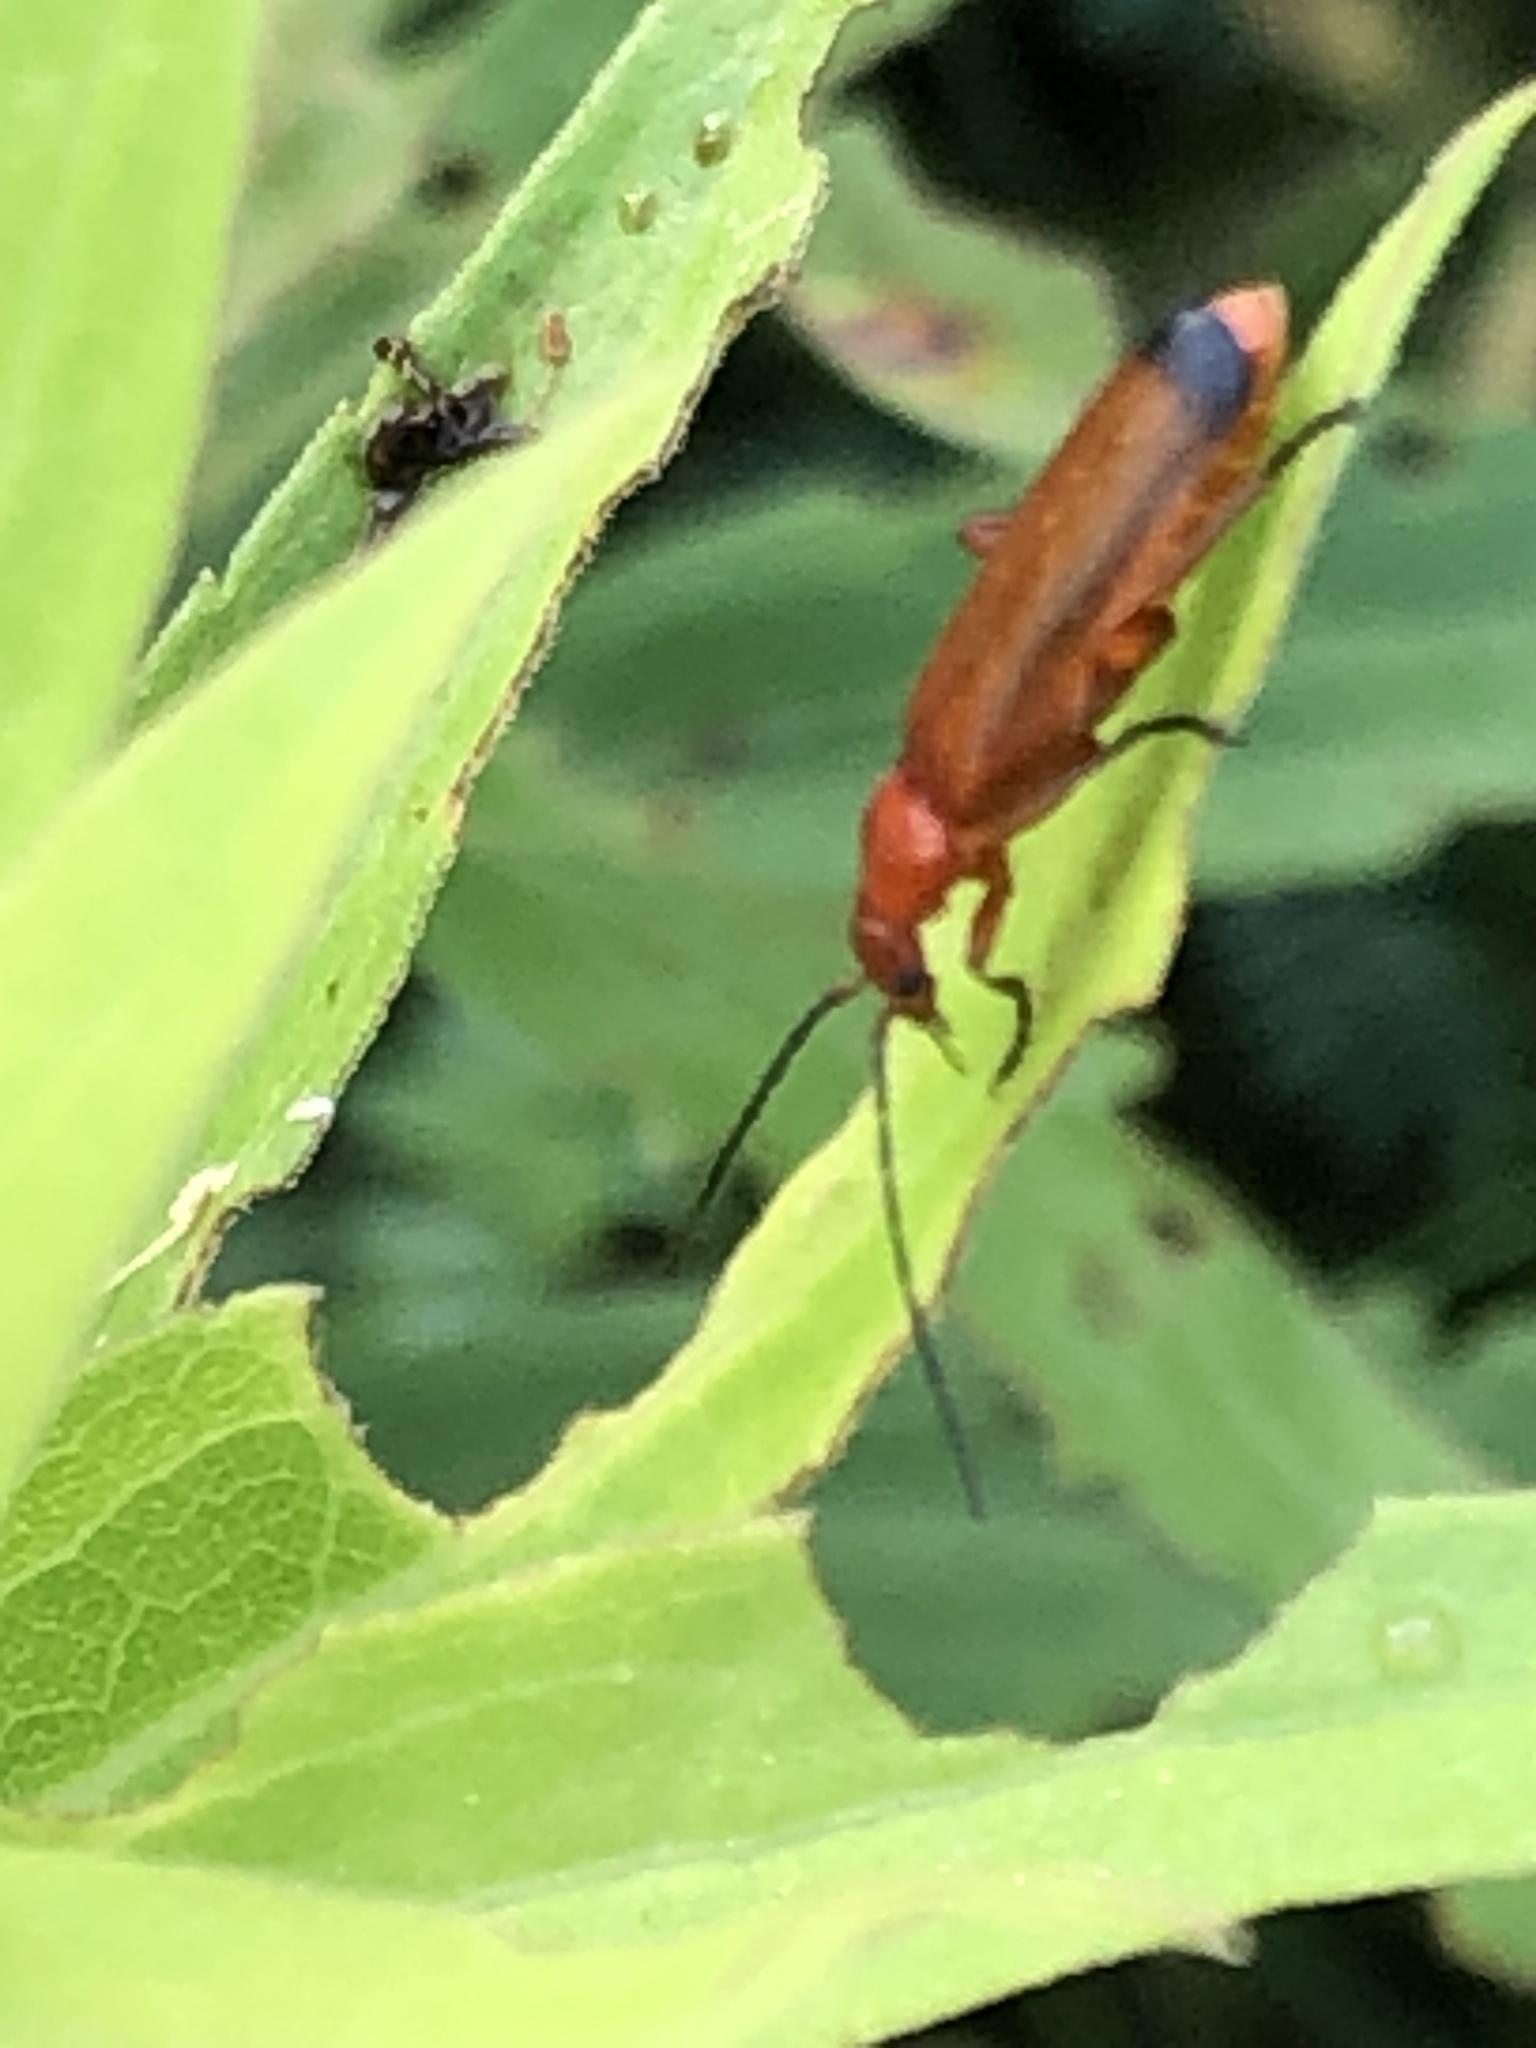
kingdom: Animalia
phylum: Arthropoda
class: Insecta
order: Coleoptera
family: Cantharidae
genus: Rhagonycha
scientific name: Rhagonycha fulva
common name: Common red soldier beetle
